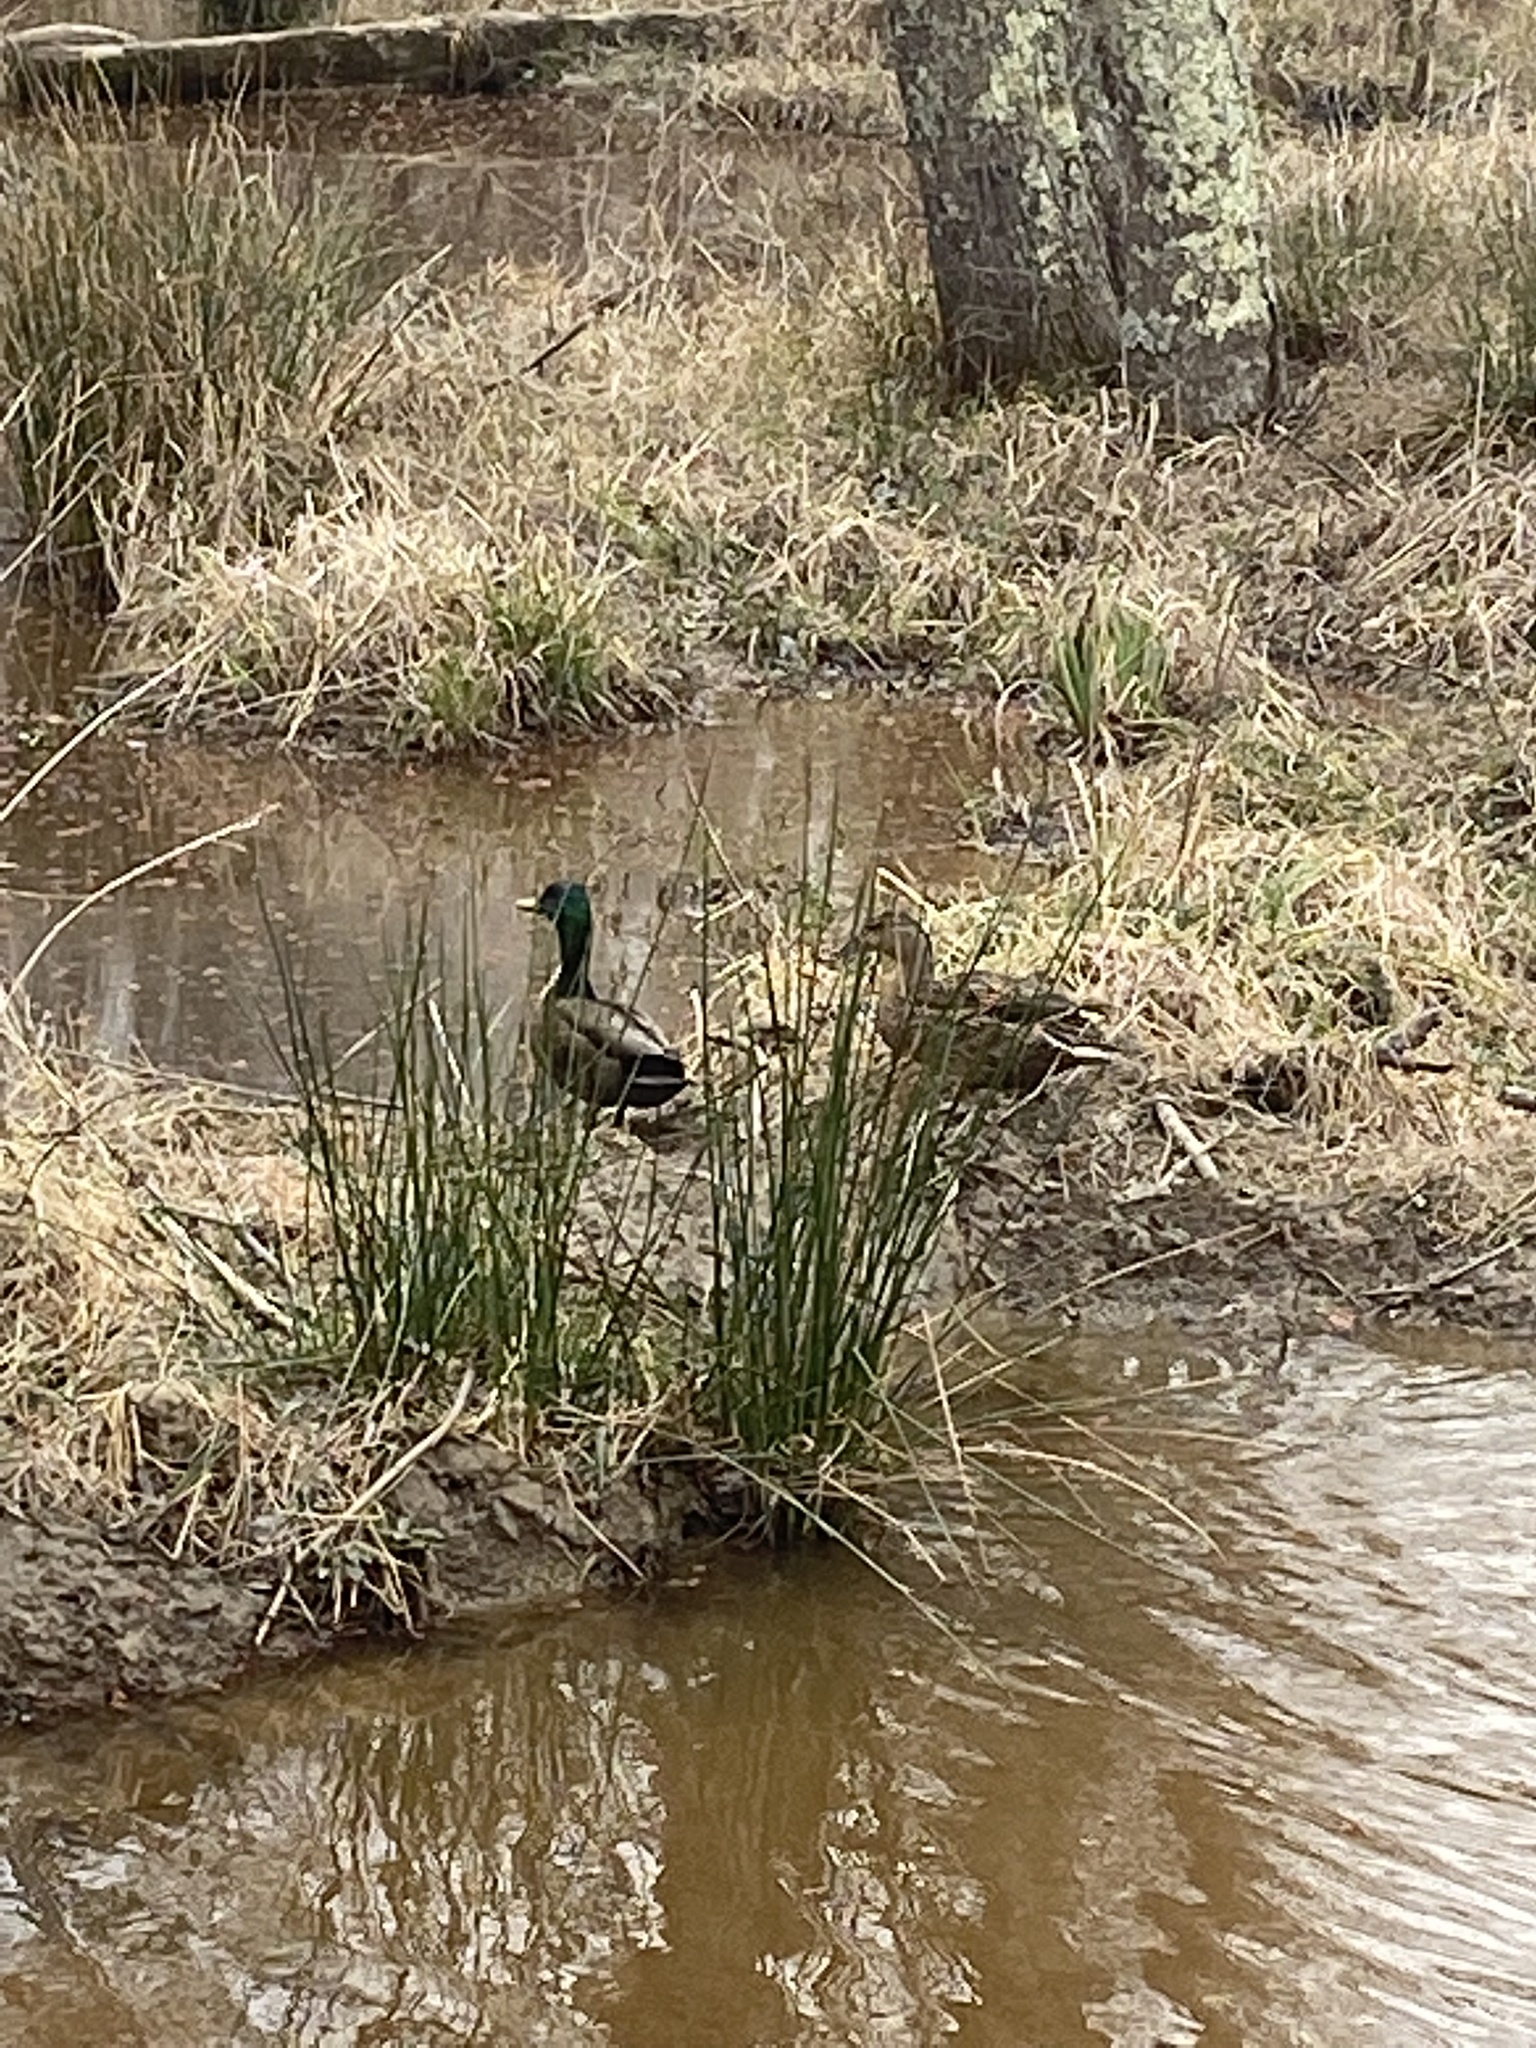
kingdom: Animalia
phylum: Chordata
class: Aves
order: Anseriformes
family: Anatidae
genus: Anas
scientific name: Anas platyrhynchos
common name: Mallard
